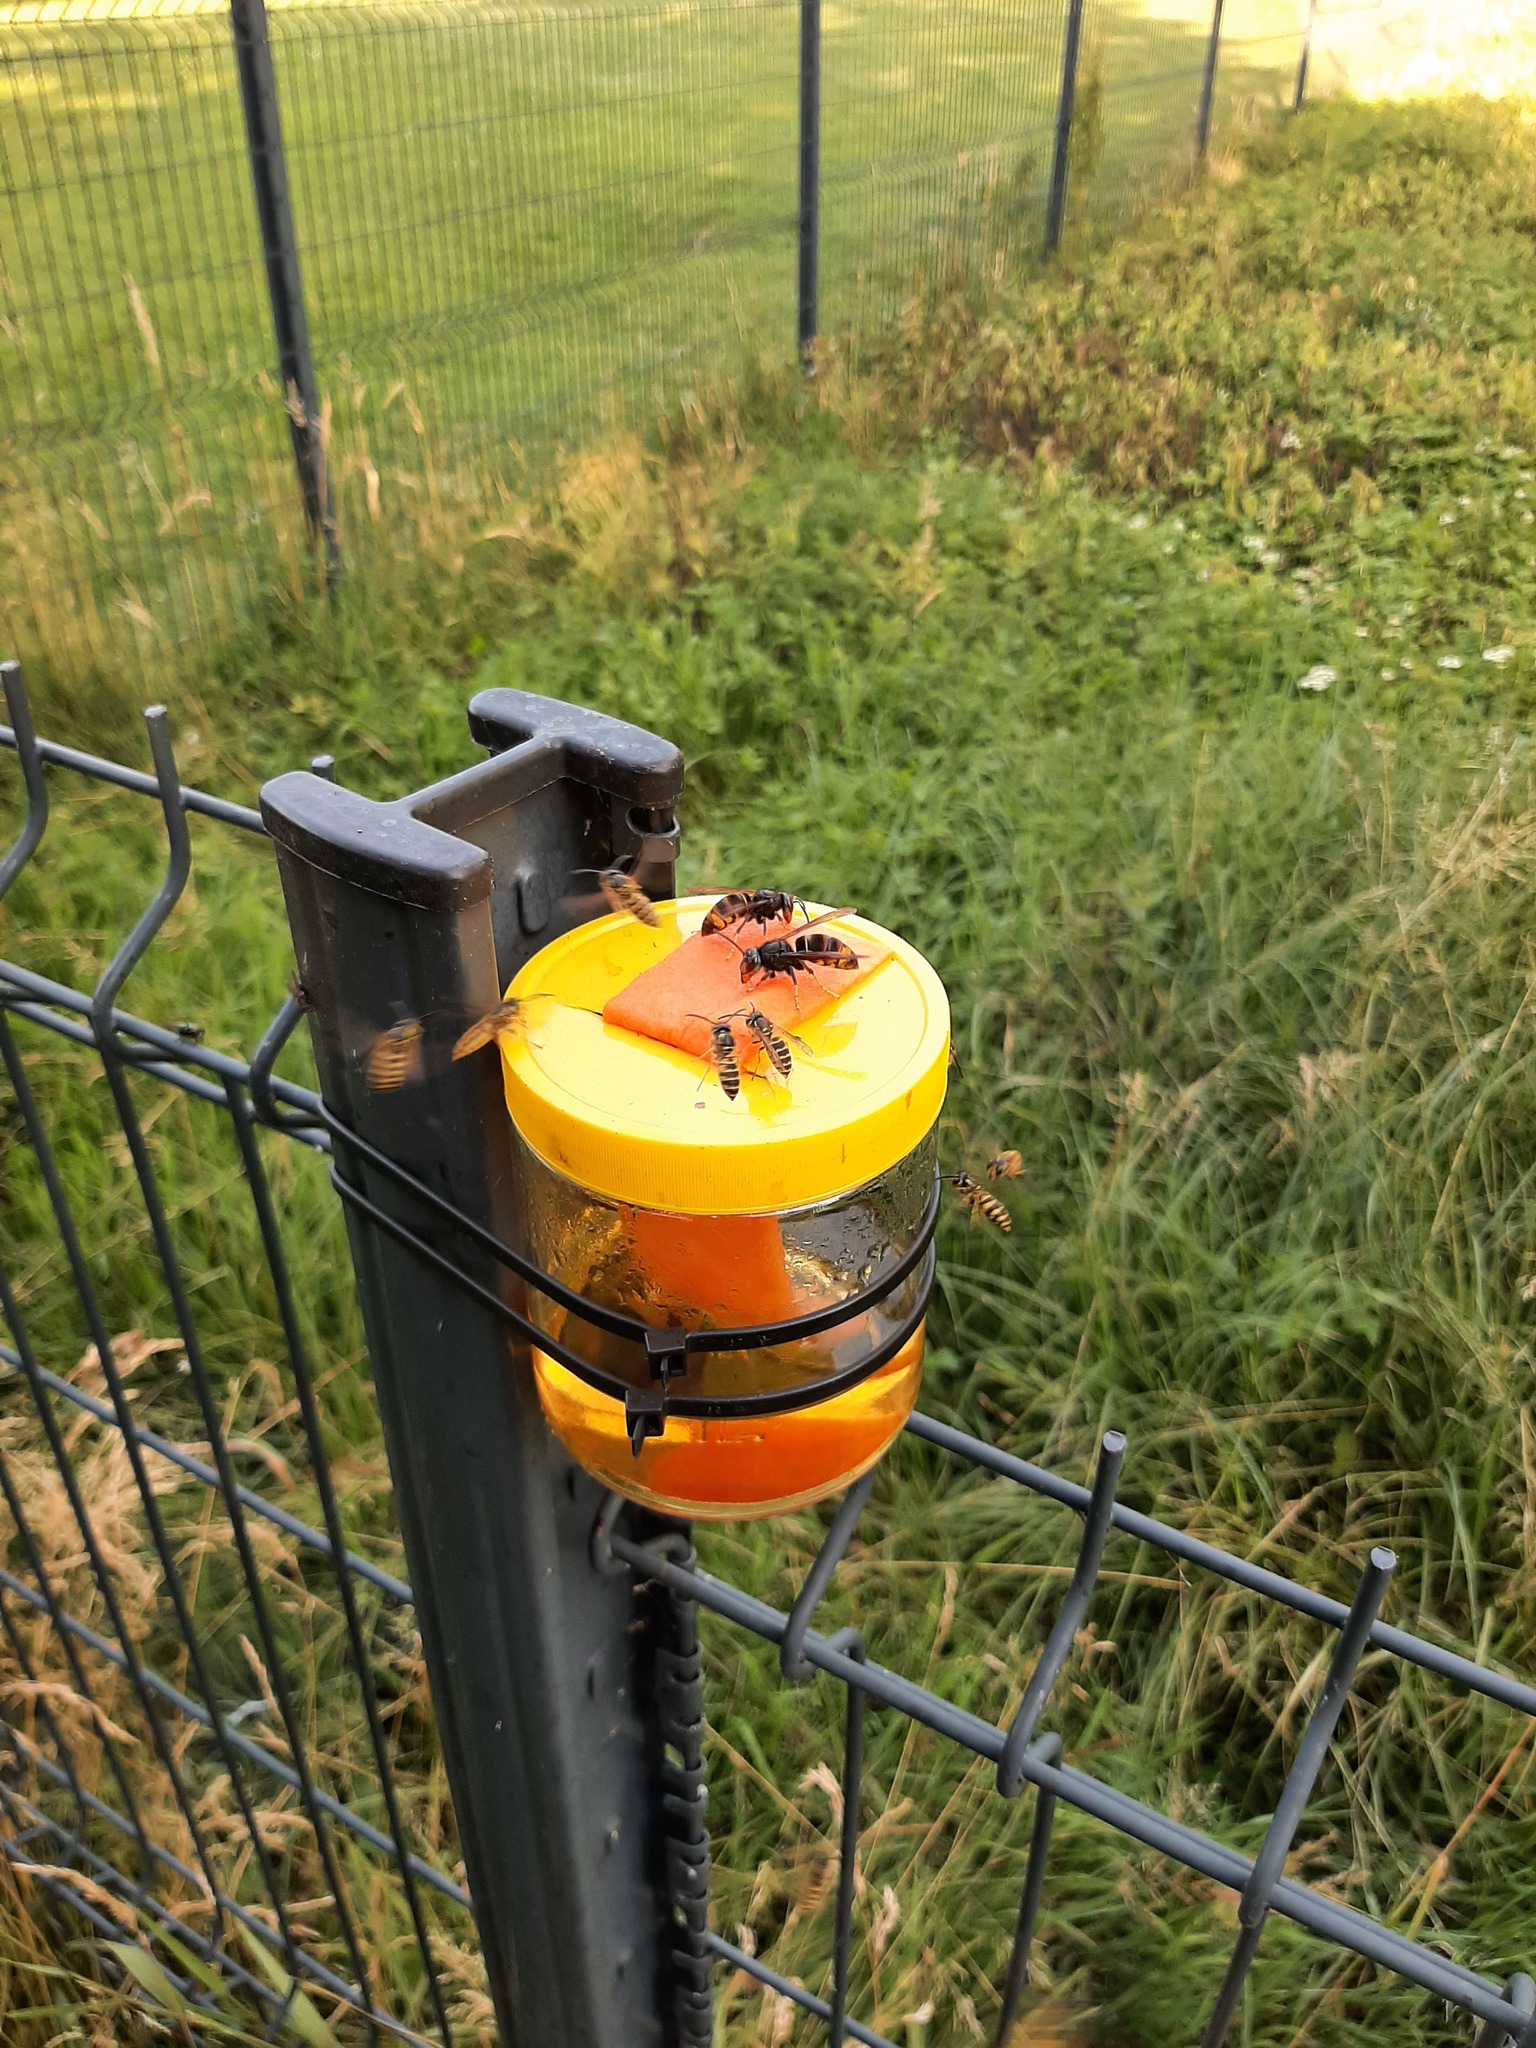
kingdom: Animalia
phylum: Arthropoda
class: Insecta
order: Hymenoptera
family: Vespidae
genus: Vespa
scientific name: Vespa velutina
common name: Asian hornet
